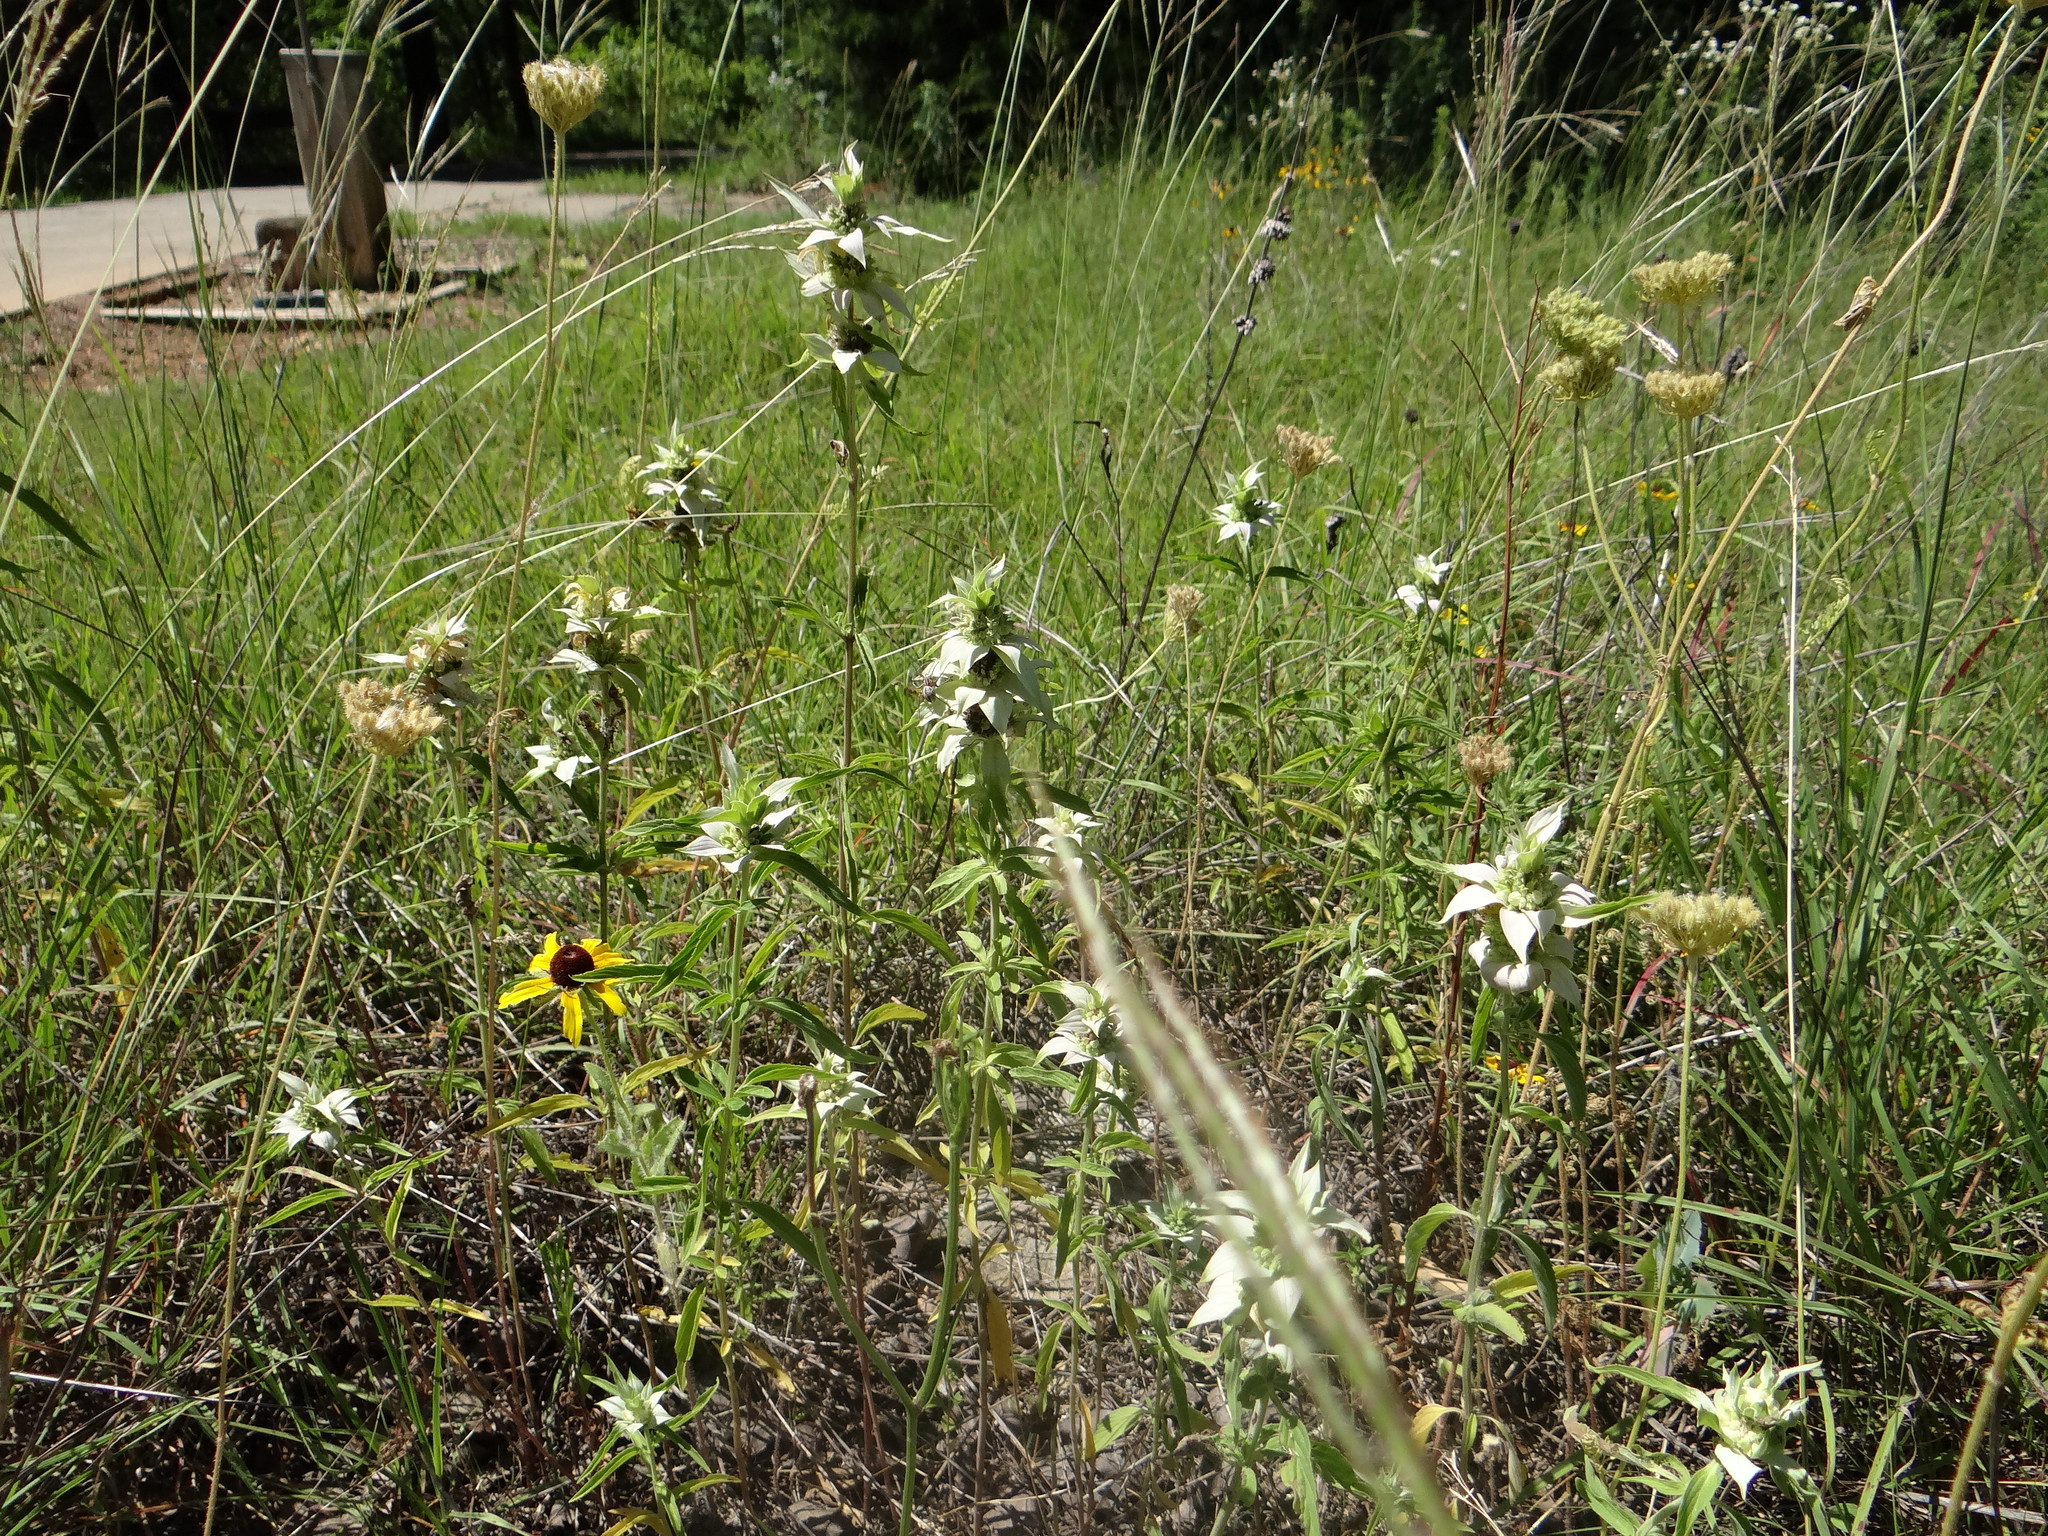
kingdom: Plantae
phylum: Tracheophyta
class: Magnoliopsida
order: Lamiales
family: Lamiaceae
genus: Monarda
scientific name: Monarda punctata
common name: Dotted monarda
